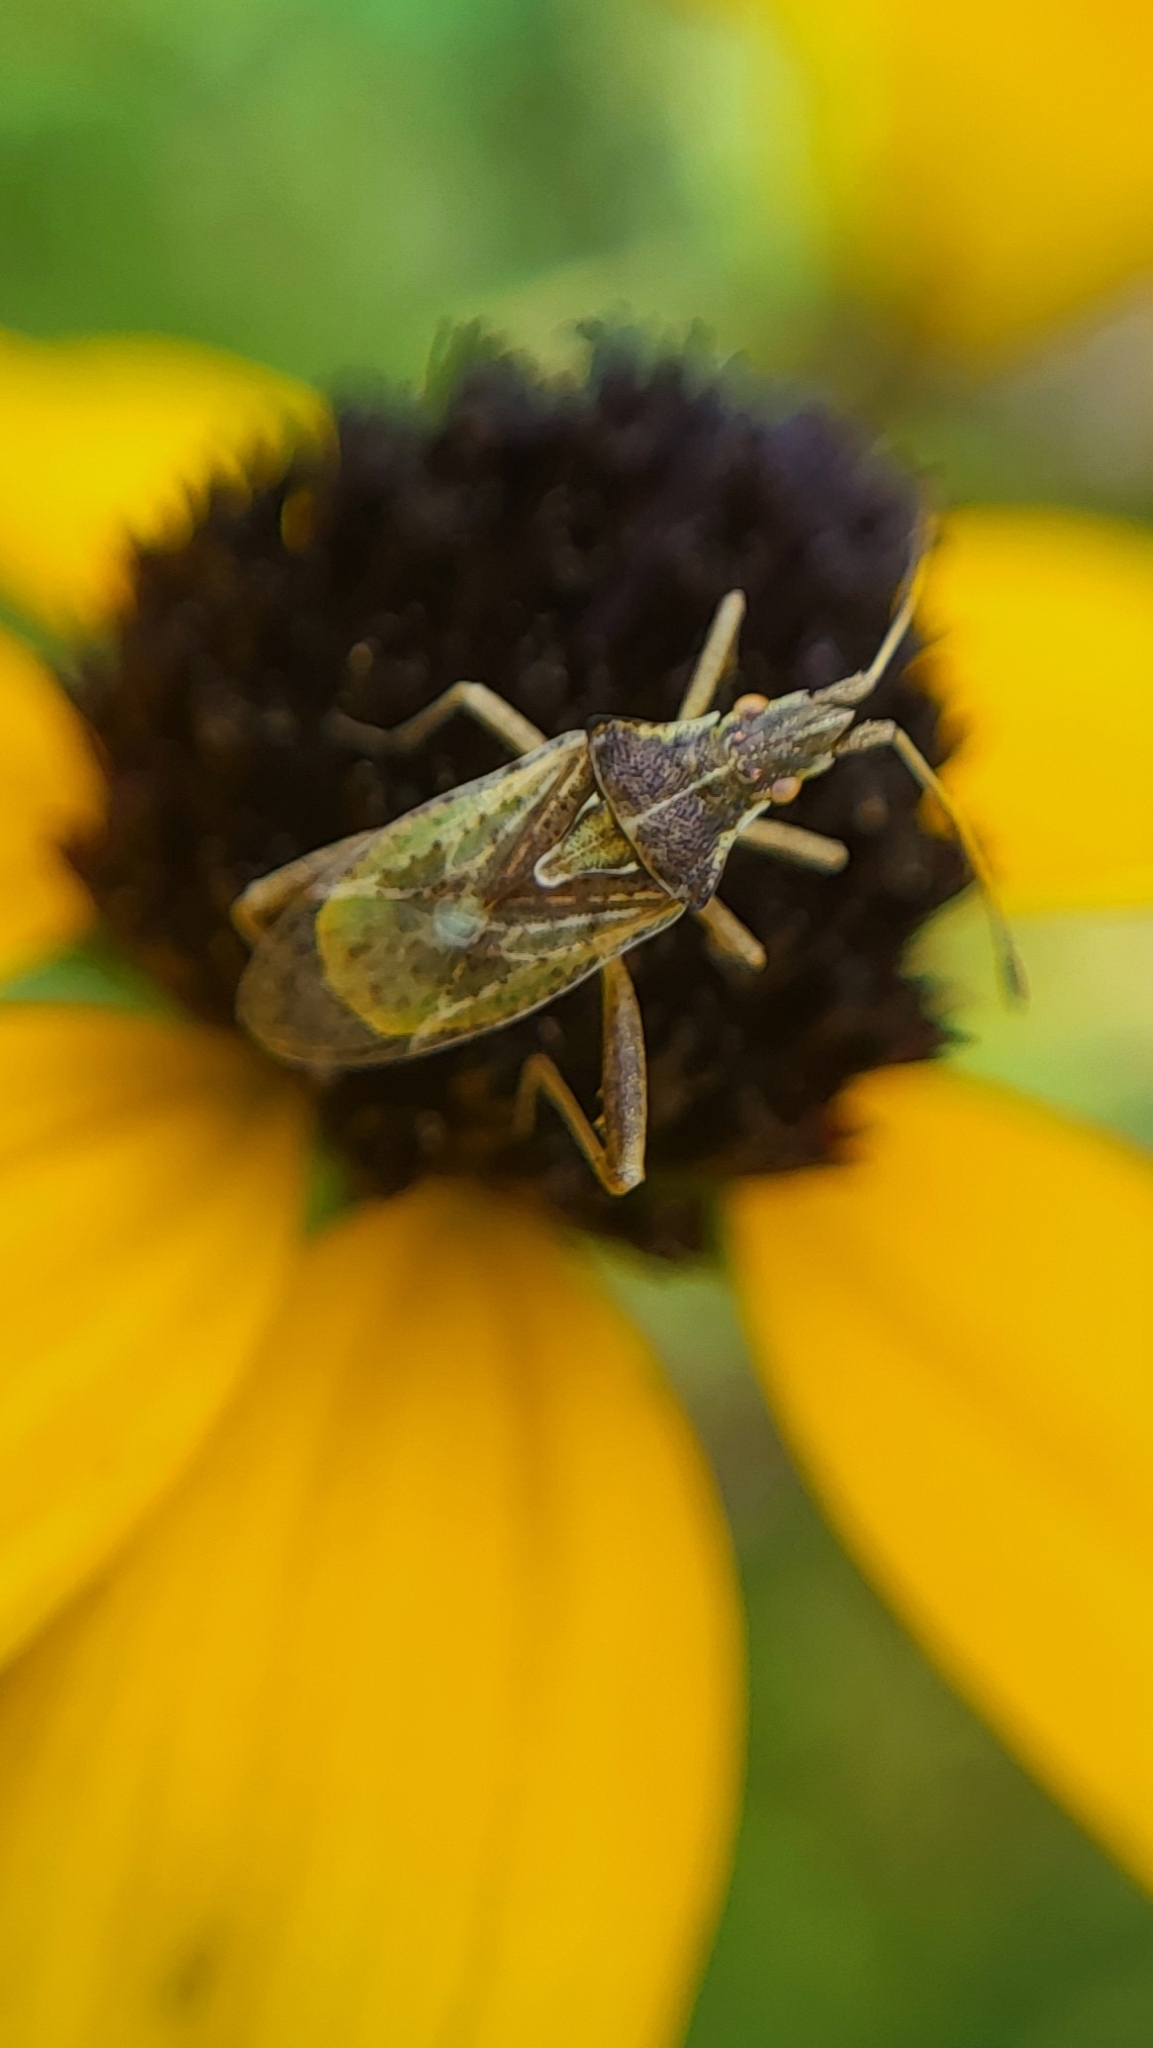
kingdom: Animalia
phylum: Arthropoda
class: Insecta
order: Hemiptera
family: Rhopalidae
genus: Harmostes
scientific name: Harmostes reflexulus
